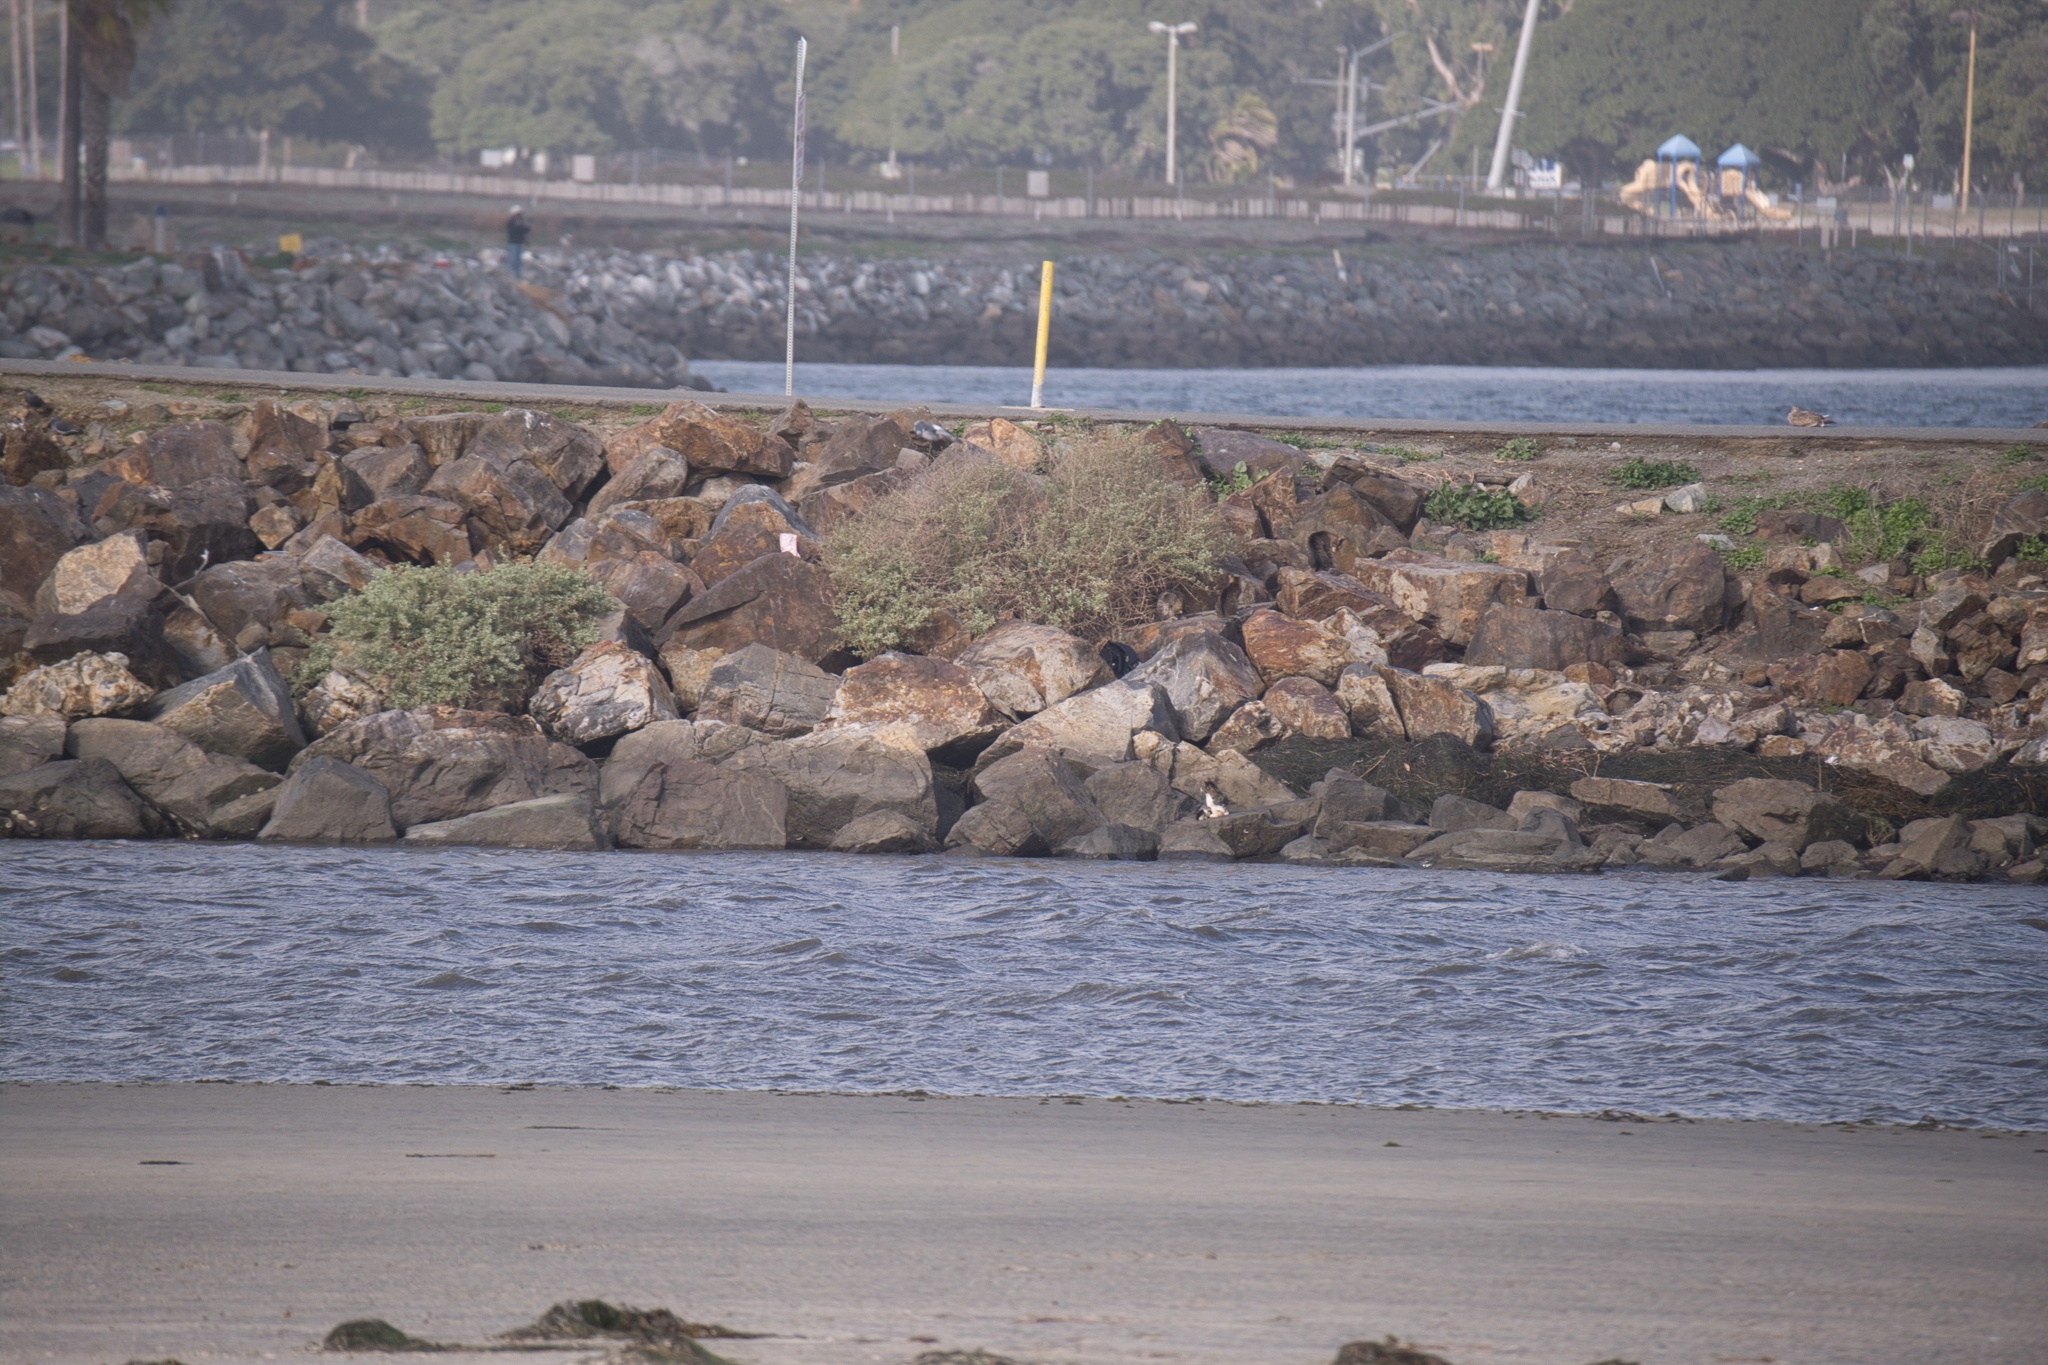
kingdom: Animalia
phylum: Chordata
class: Mammalia
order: Carnivora
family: Felidae
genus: Felis
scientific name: Felis catus
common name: Domestic cat
